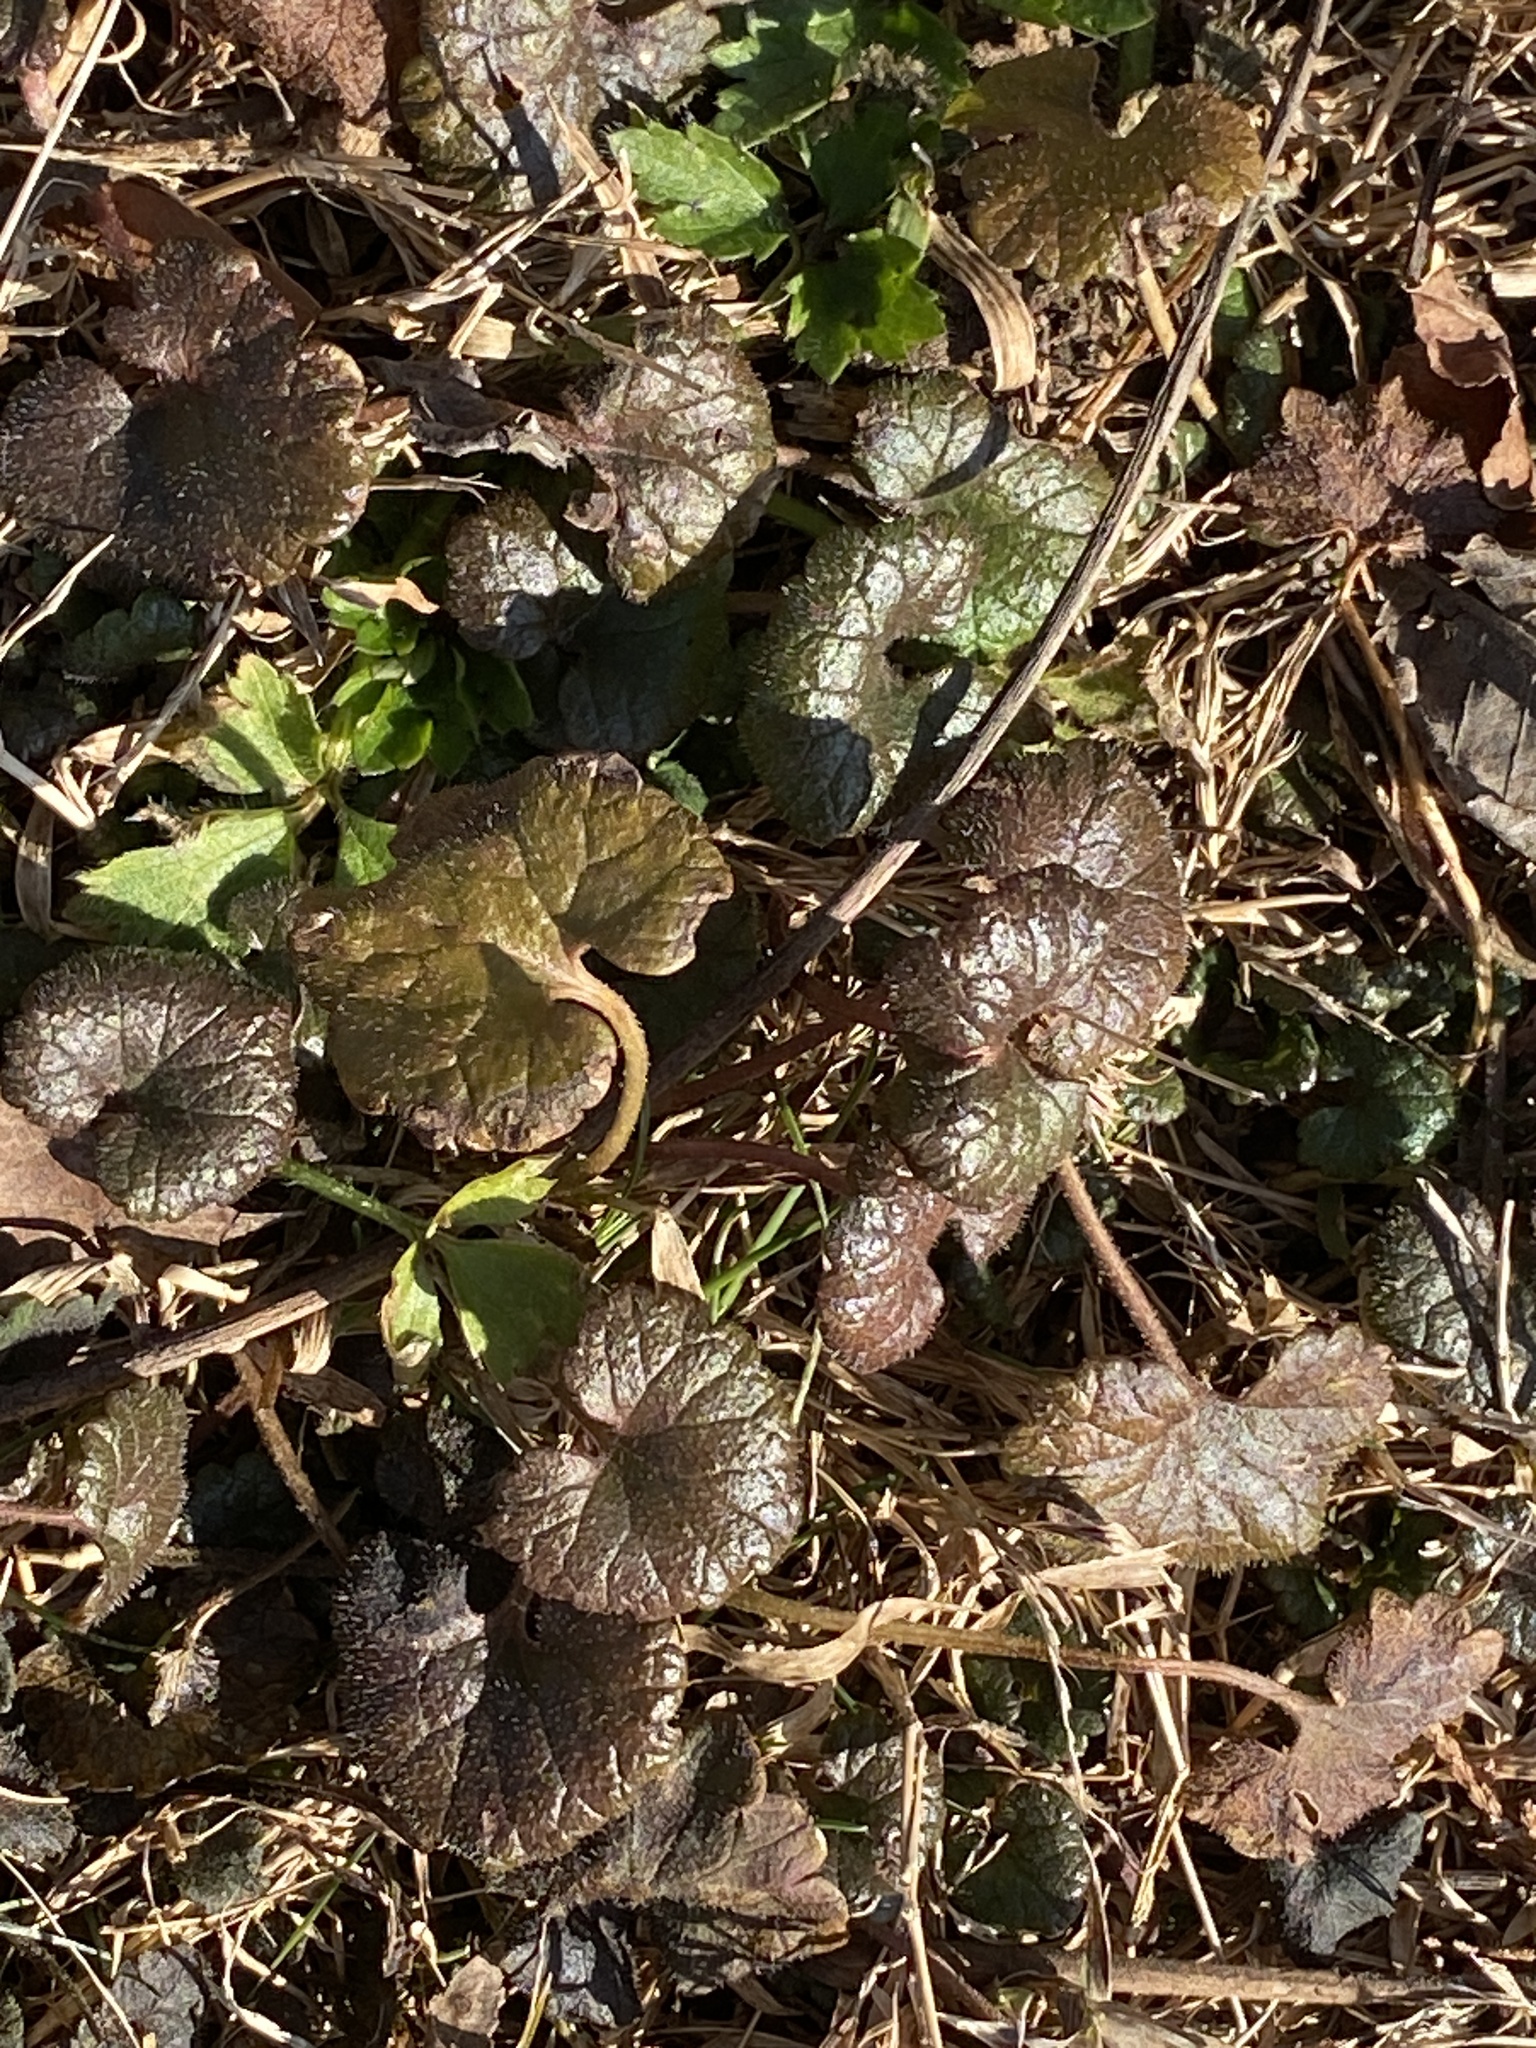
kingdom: Plantae
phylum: Tracheophyta
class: Magnoliopsida
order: Lamiales
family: Lamiaceae
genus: Glechoma
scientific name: Glechoma hederacea
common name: Ground ivy
